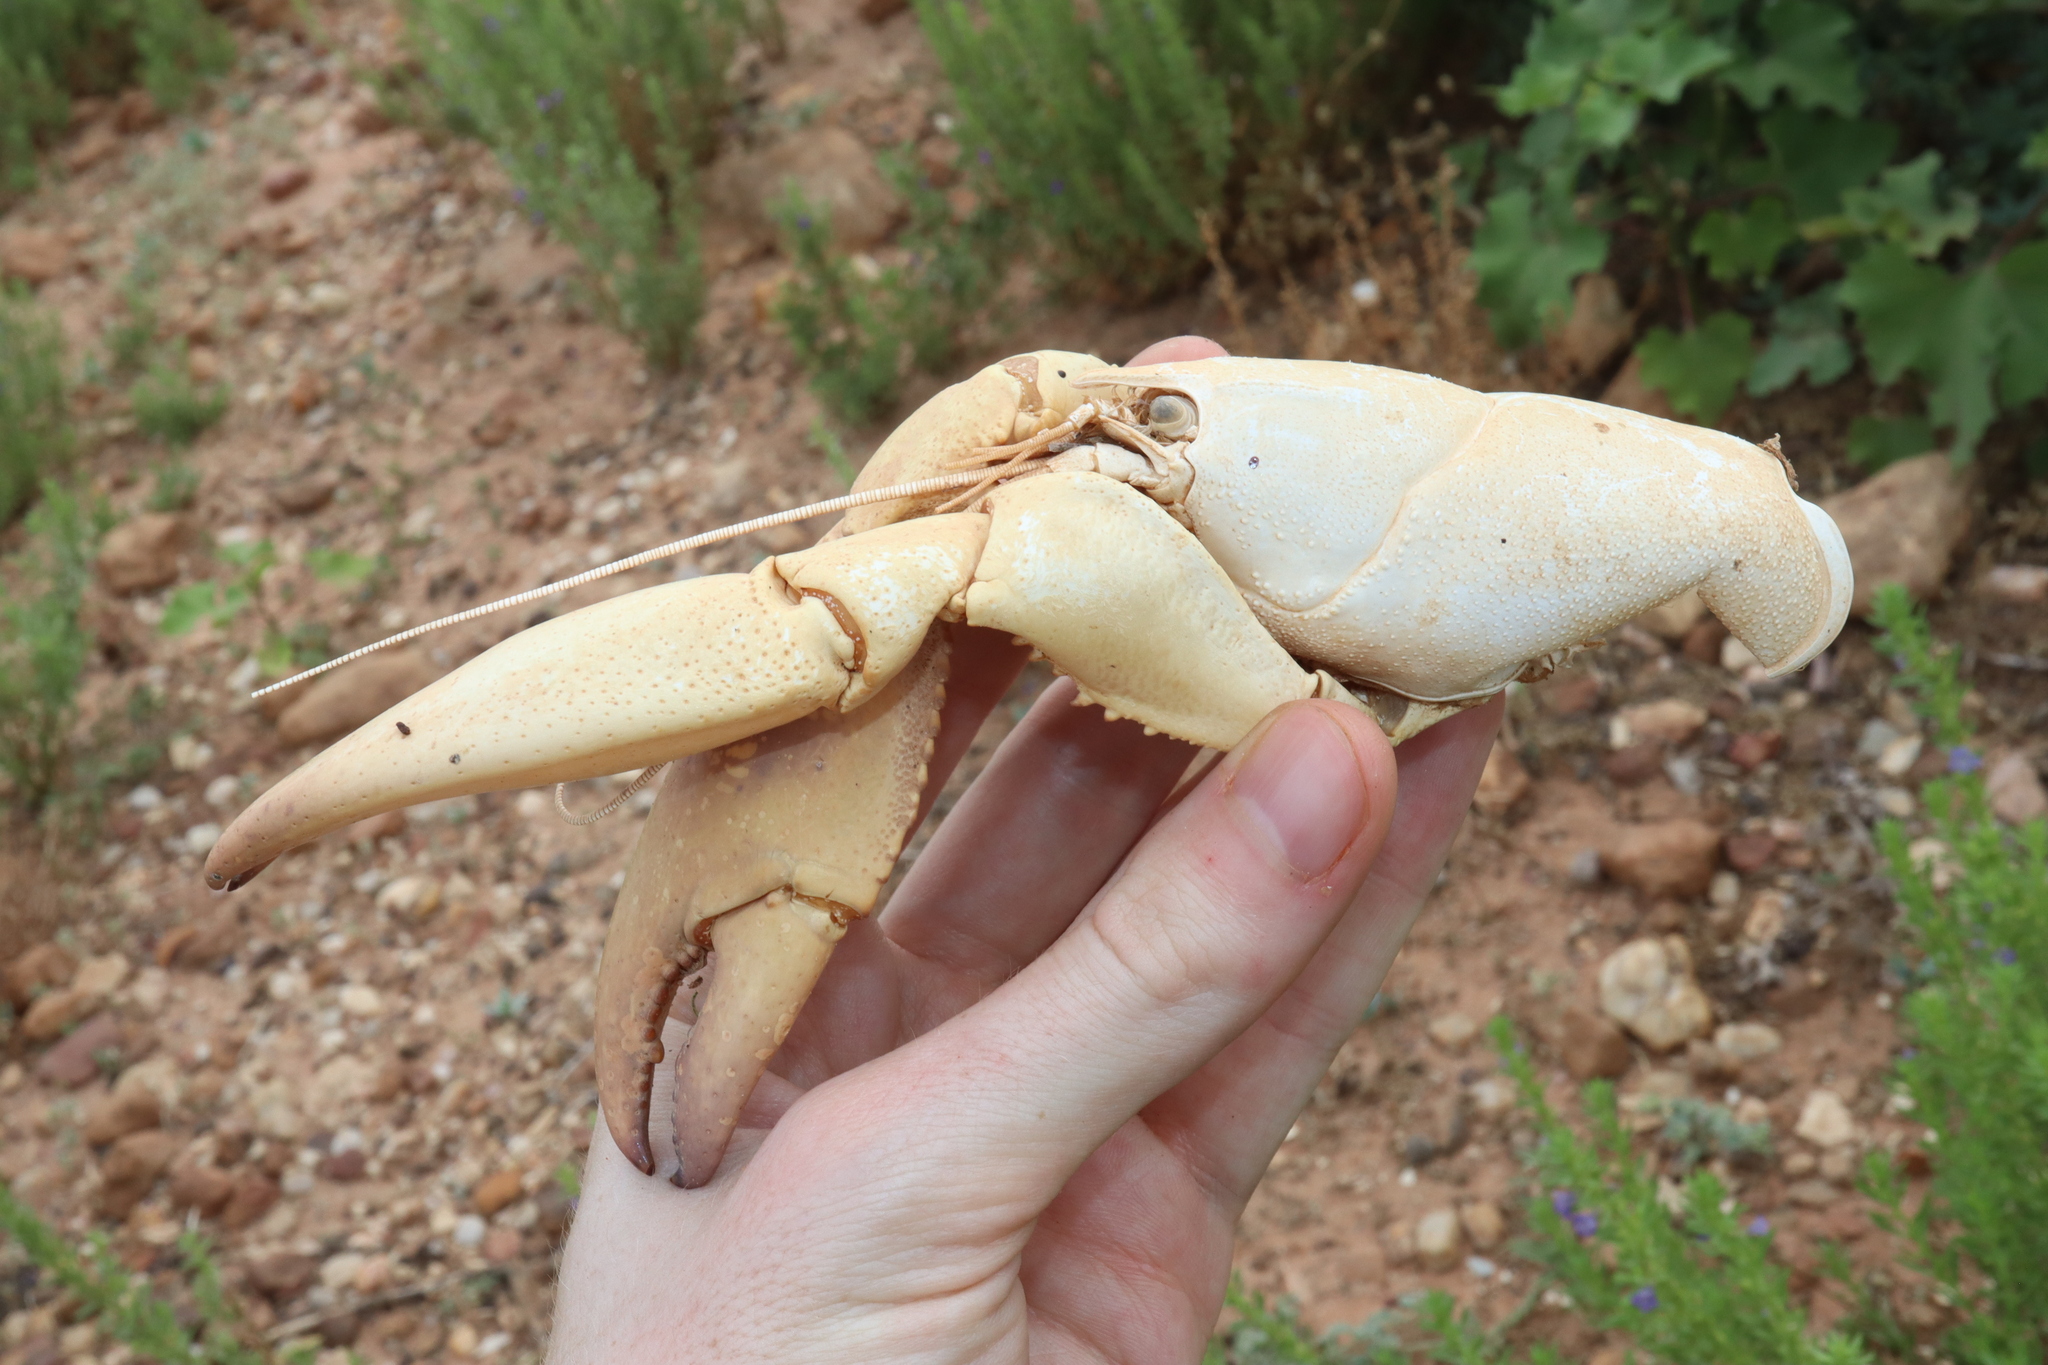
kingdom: Animalia
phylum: Arthropoda
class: Malacostraca
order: Decapoda
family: Parastacidae
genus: Cherax
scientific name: Cherax destructor
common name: Yabby
